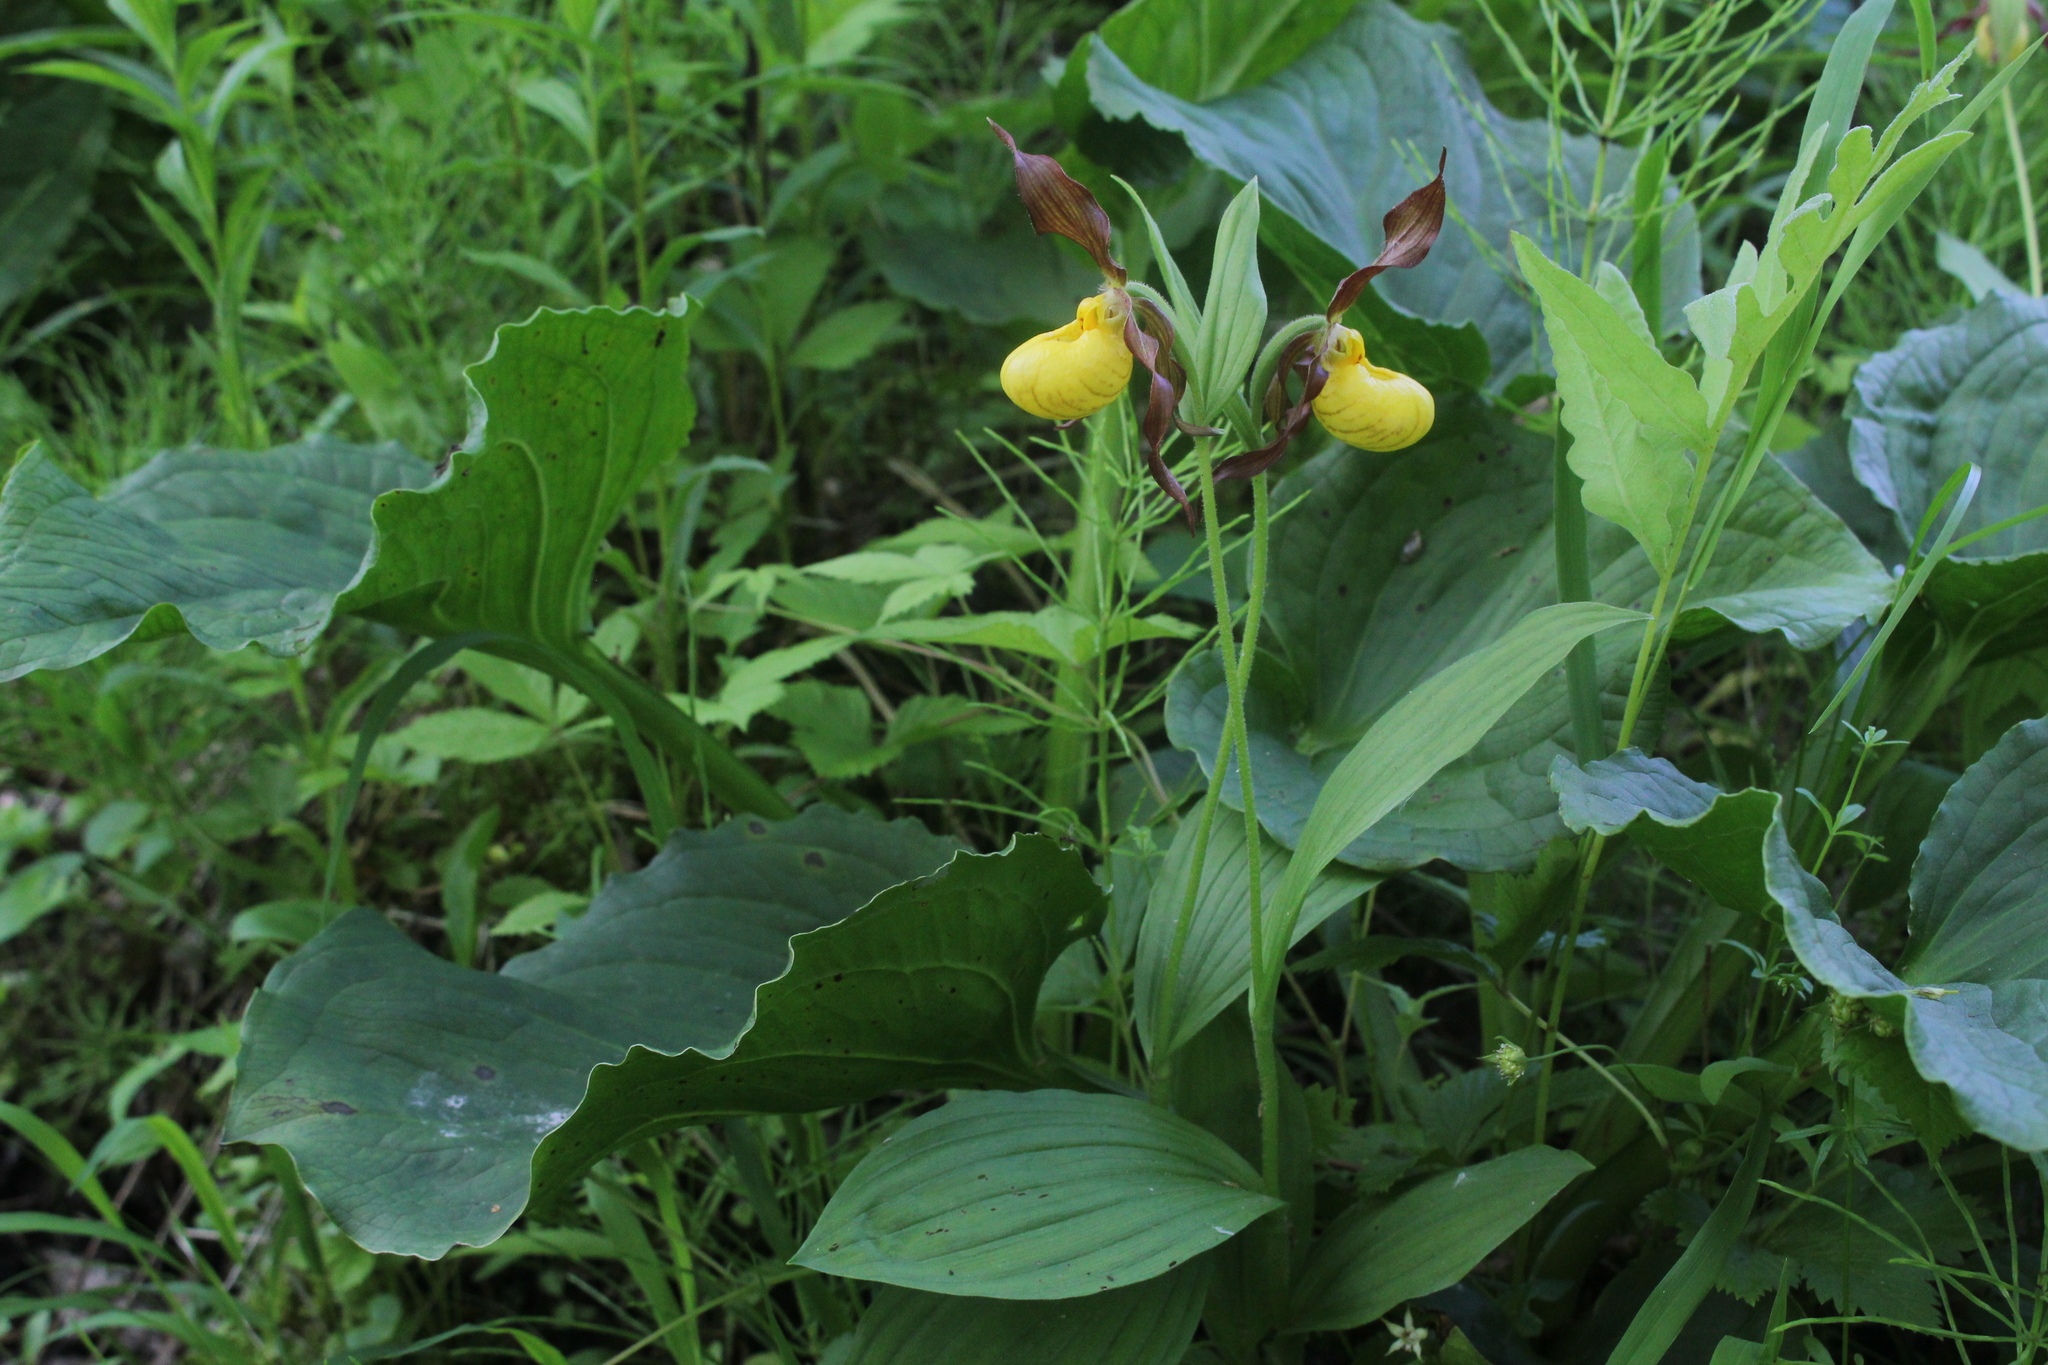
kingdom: Plantae
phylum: Tracheophyta
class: Liliopsida
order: Asparagales
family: Orchidaceae
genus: Cypripedium
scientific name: Cypripedium parviflorum
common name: American yellow lady's-slipper
